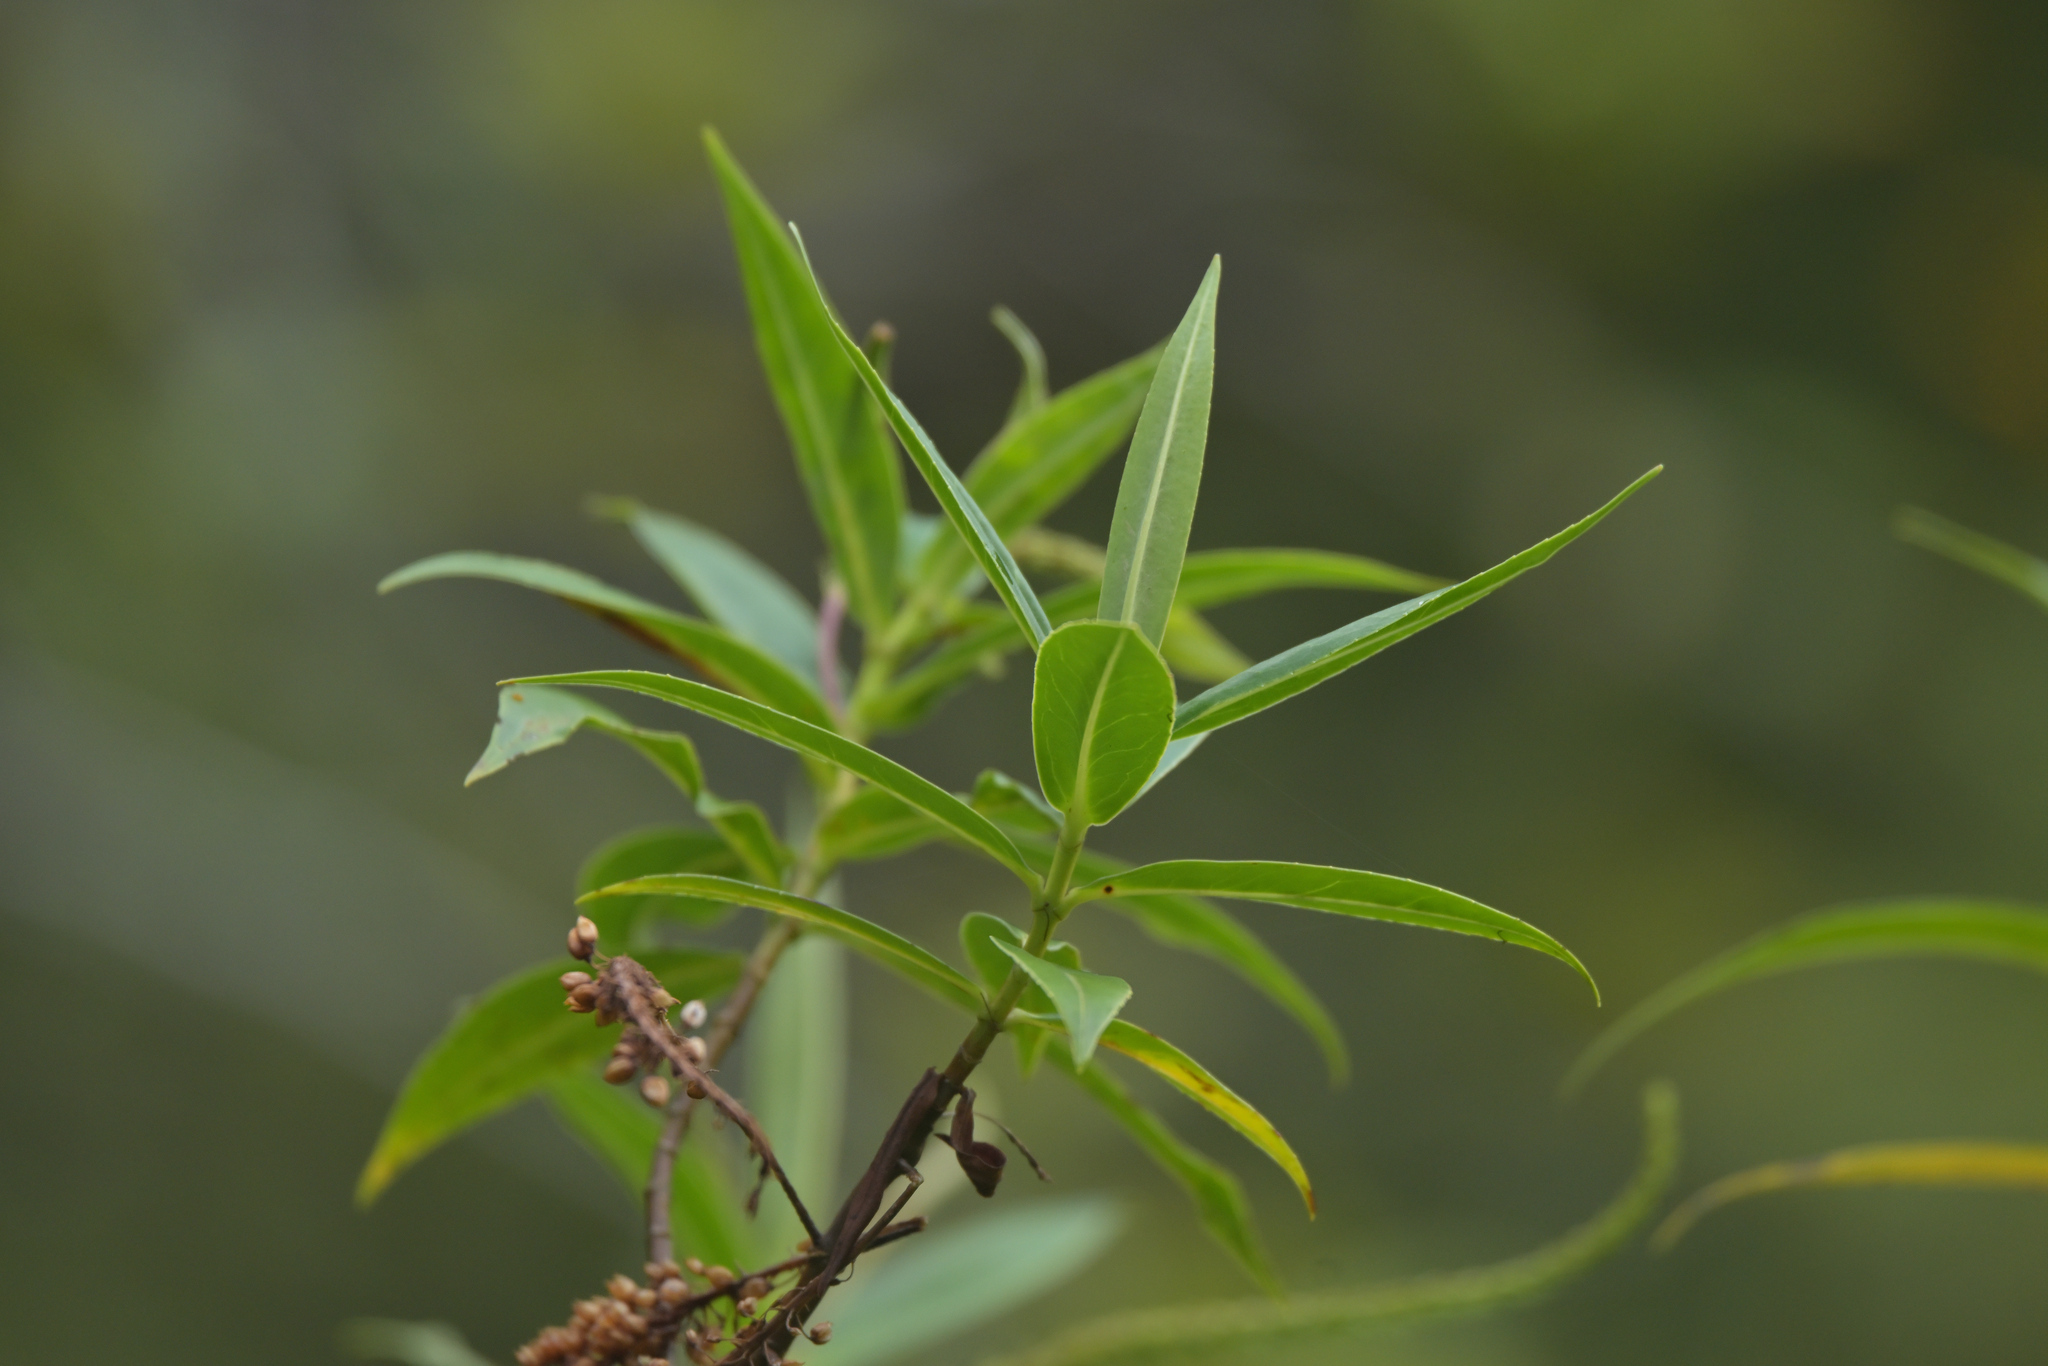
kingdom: Plantae
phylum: Tracheophyta
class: Magnoliopsida
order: Lamiales
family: Plantaginaceae
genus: Veronica
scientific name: Veronica salicifolia
